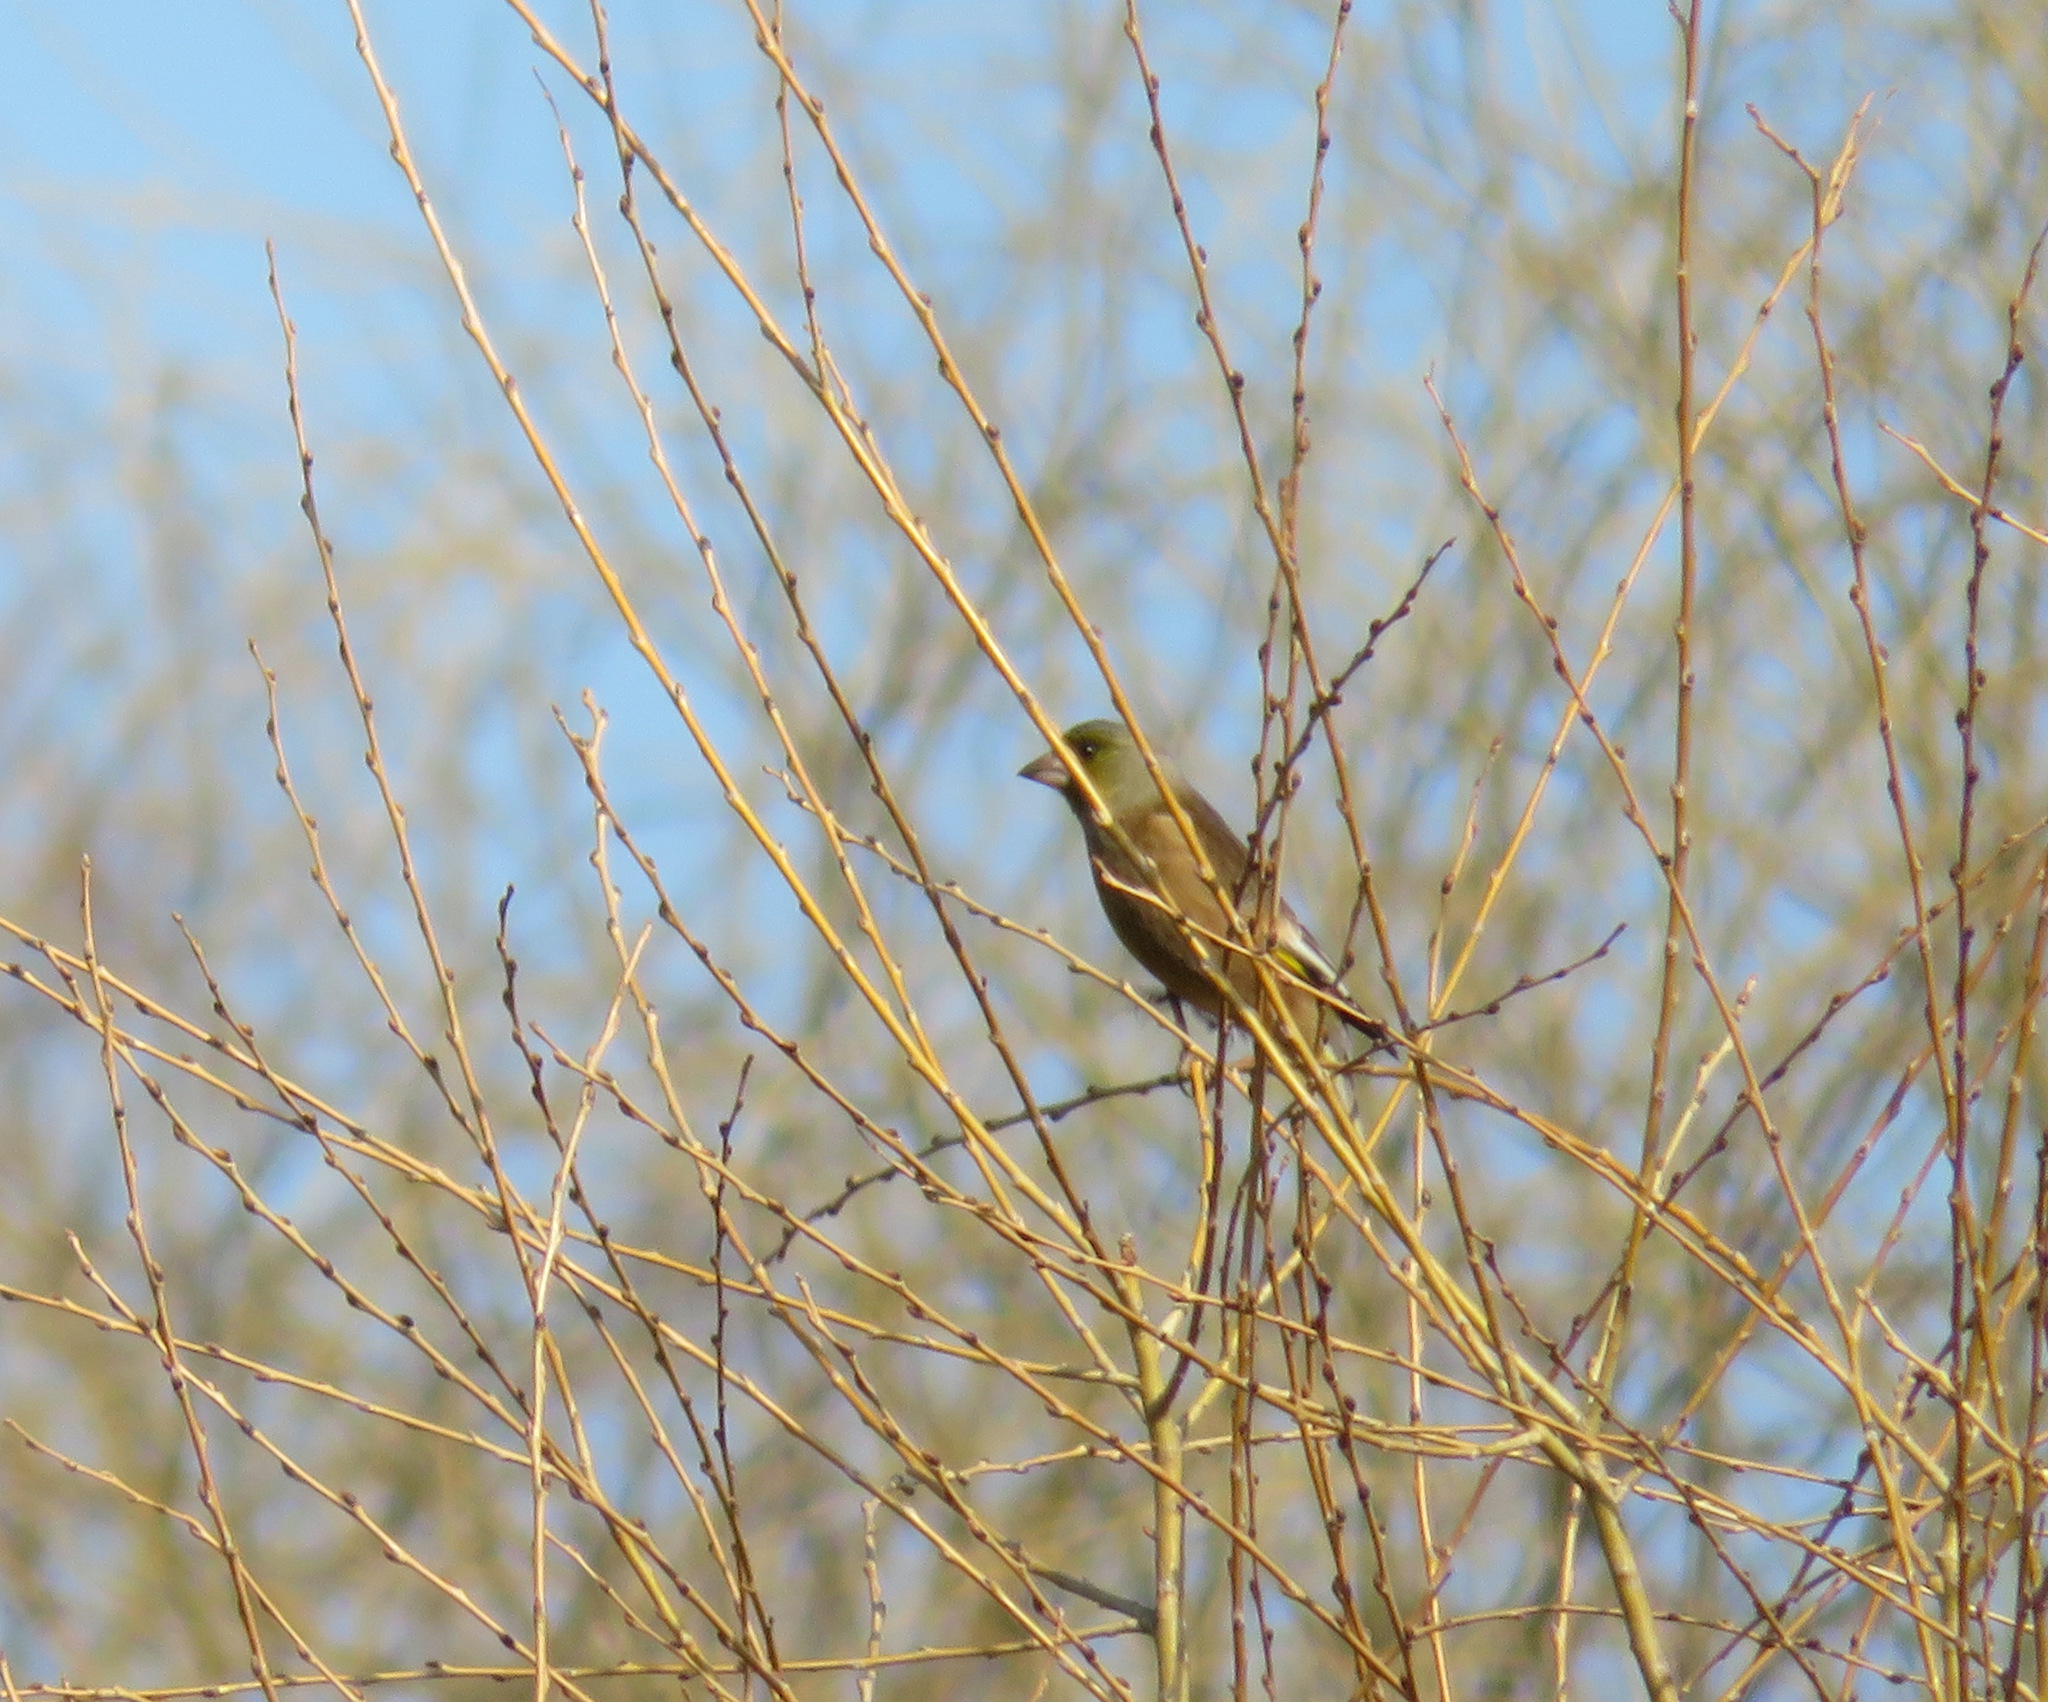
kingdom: Plantae
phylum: Tracheophyta
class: Liliopsida
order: Poales
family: Poaceae
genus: Chloris
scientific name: Chloris sinica
